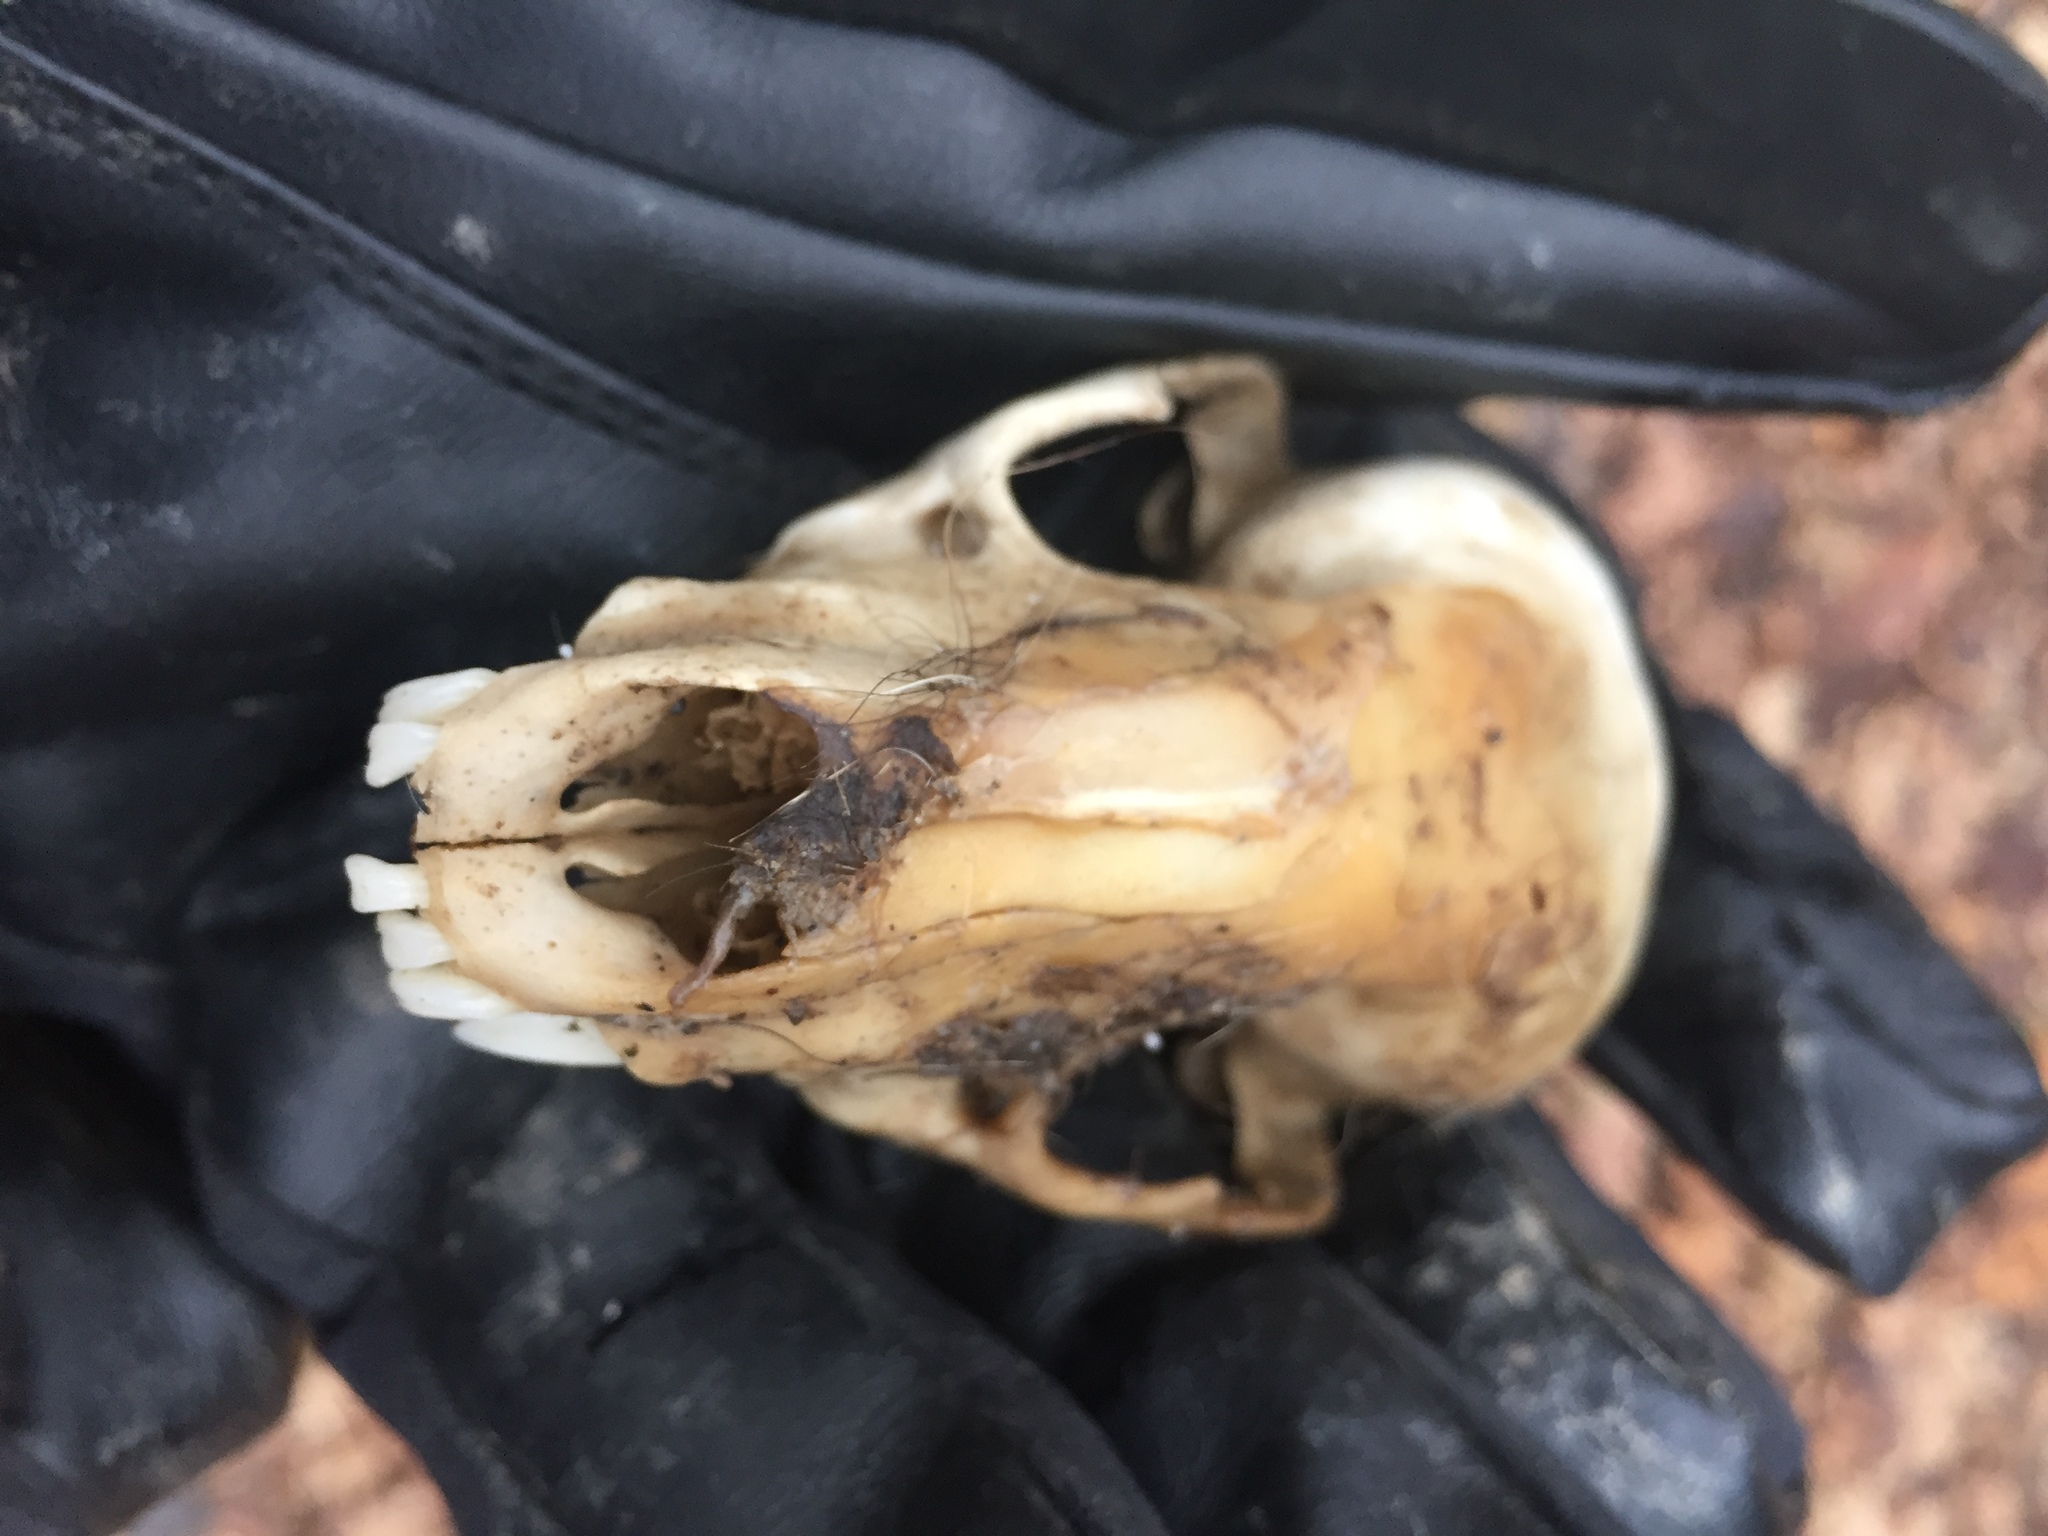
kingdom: Animalia
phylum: Chordata
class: Mammalia
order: Carnivora
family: Procyonidae
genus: Procyon
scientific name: Procyon lotor
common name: Raccoon
